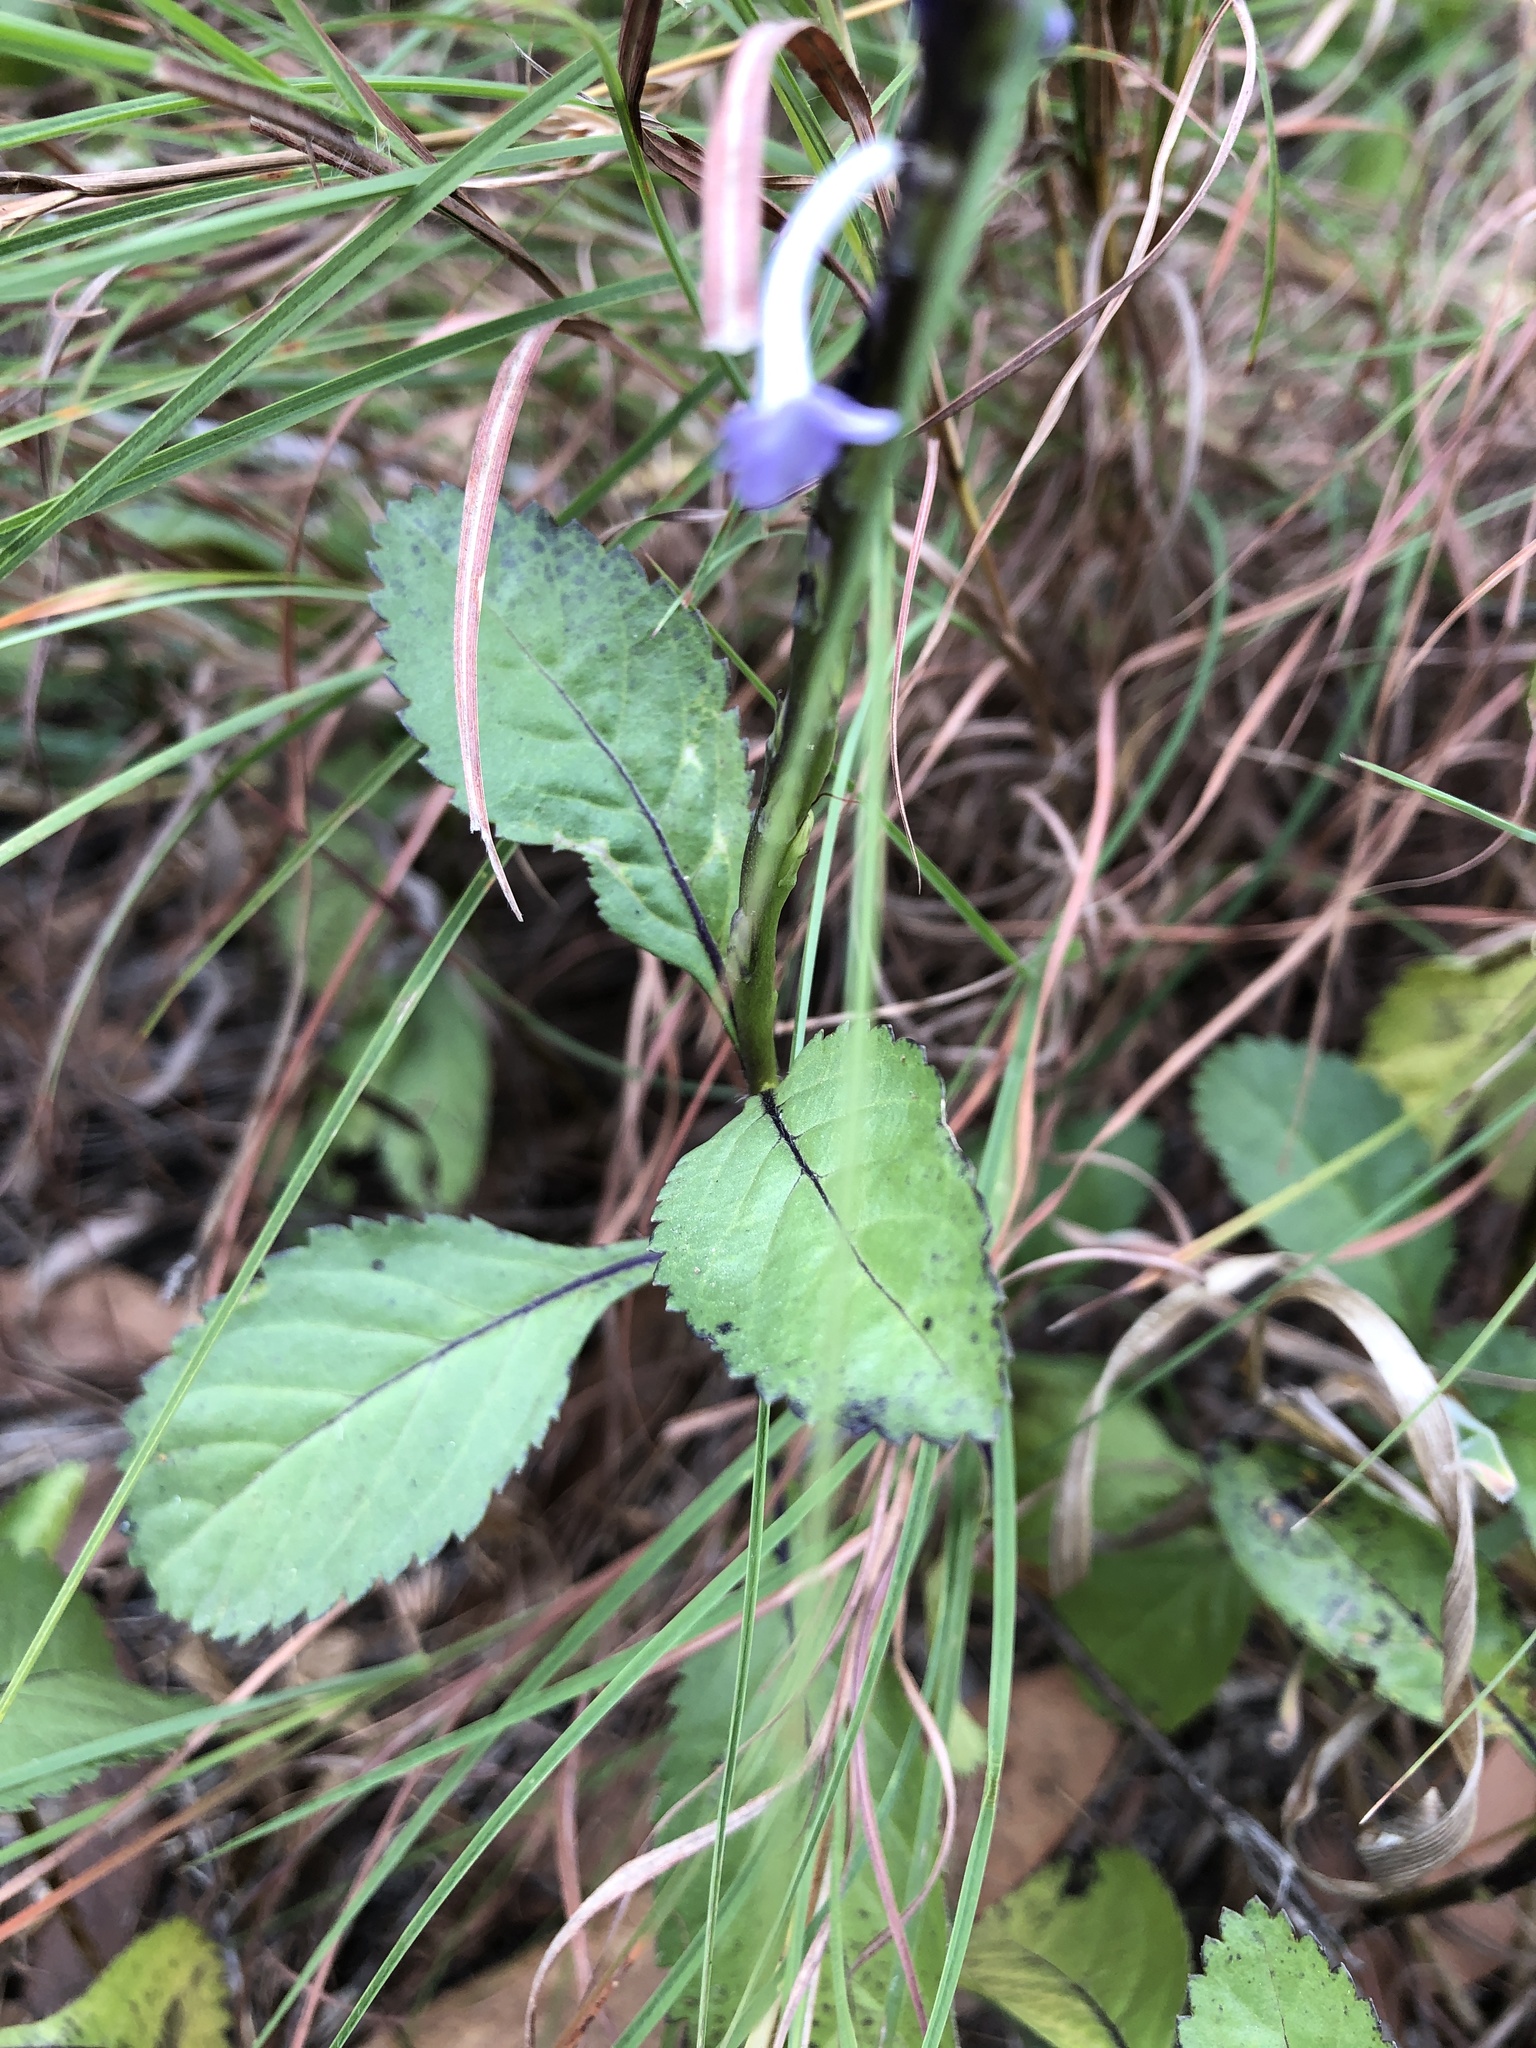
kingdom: Plantae
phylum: Tracheophyta
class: Magnoliopsida
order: Lamiales
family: Verbenaceae
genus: Stachytarpheta
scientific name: Stachytarpheta jamaicensis
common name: Light-blue snakeweed
